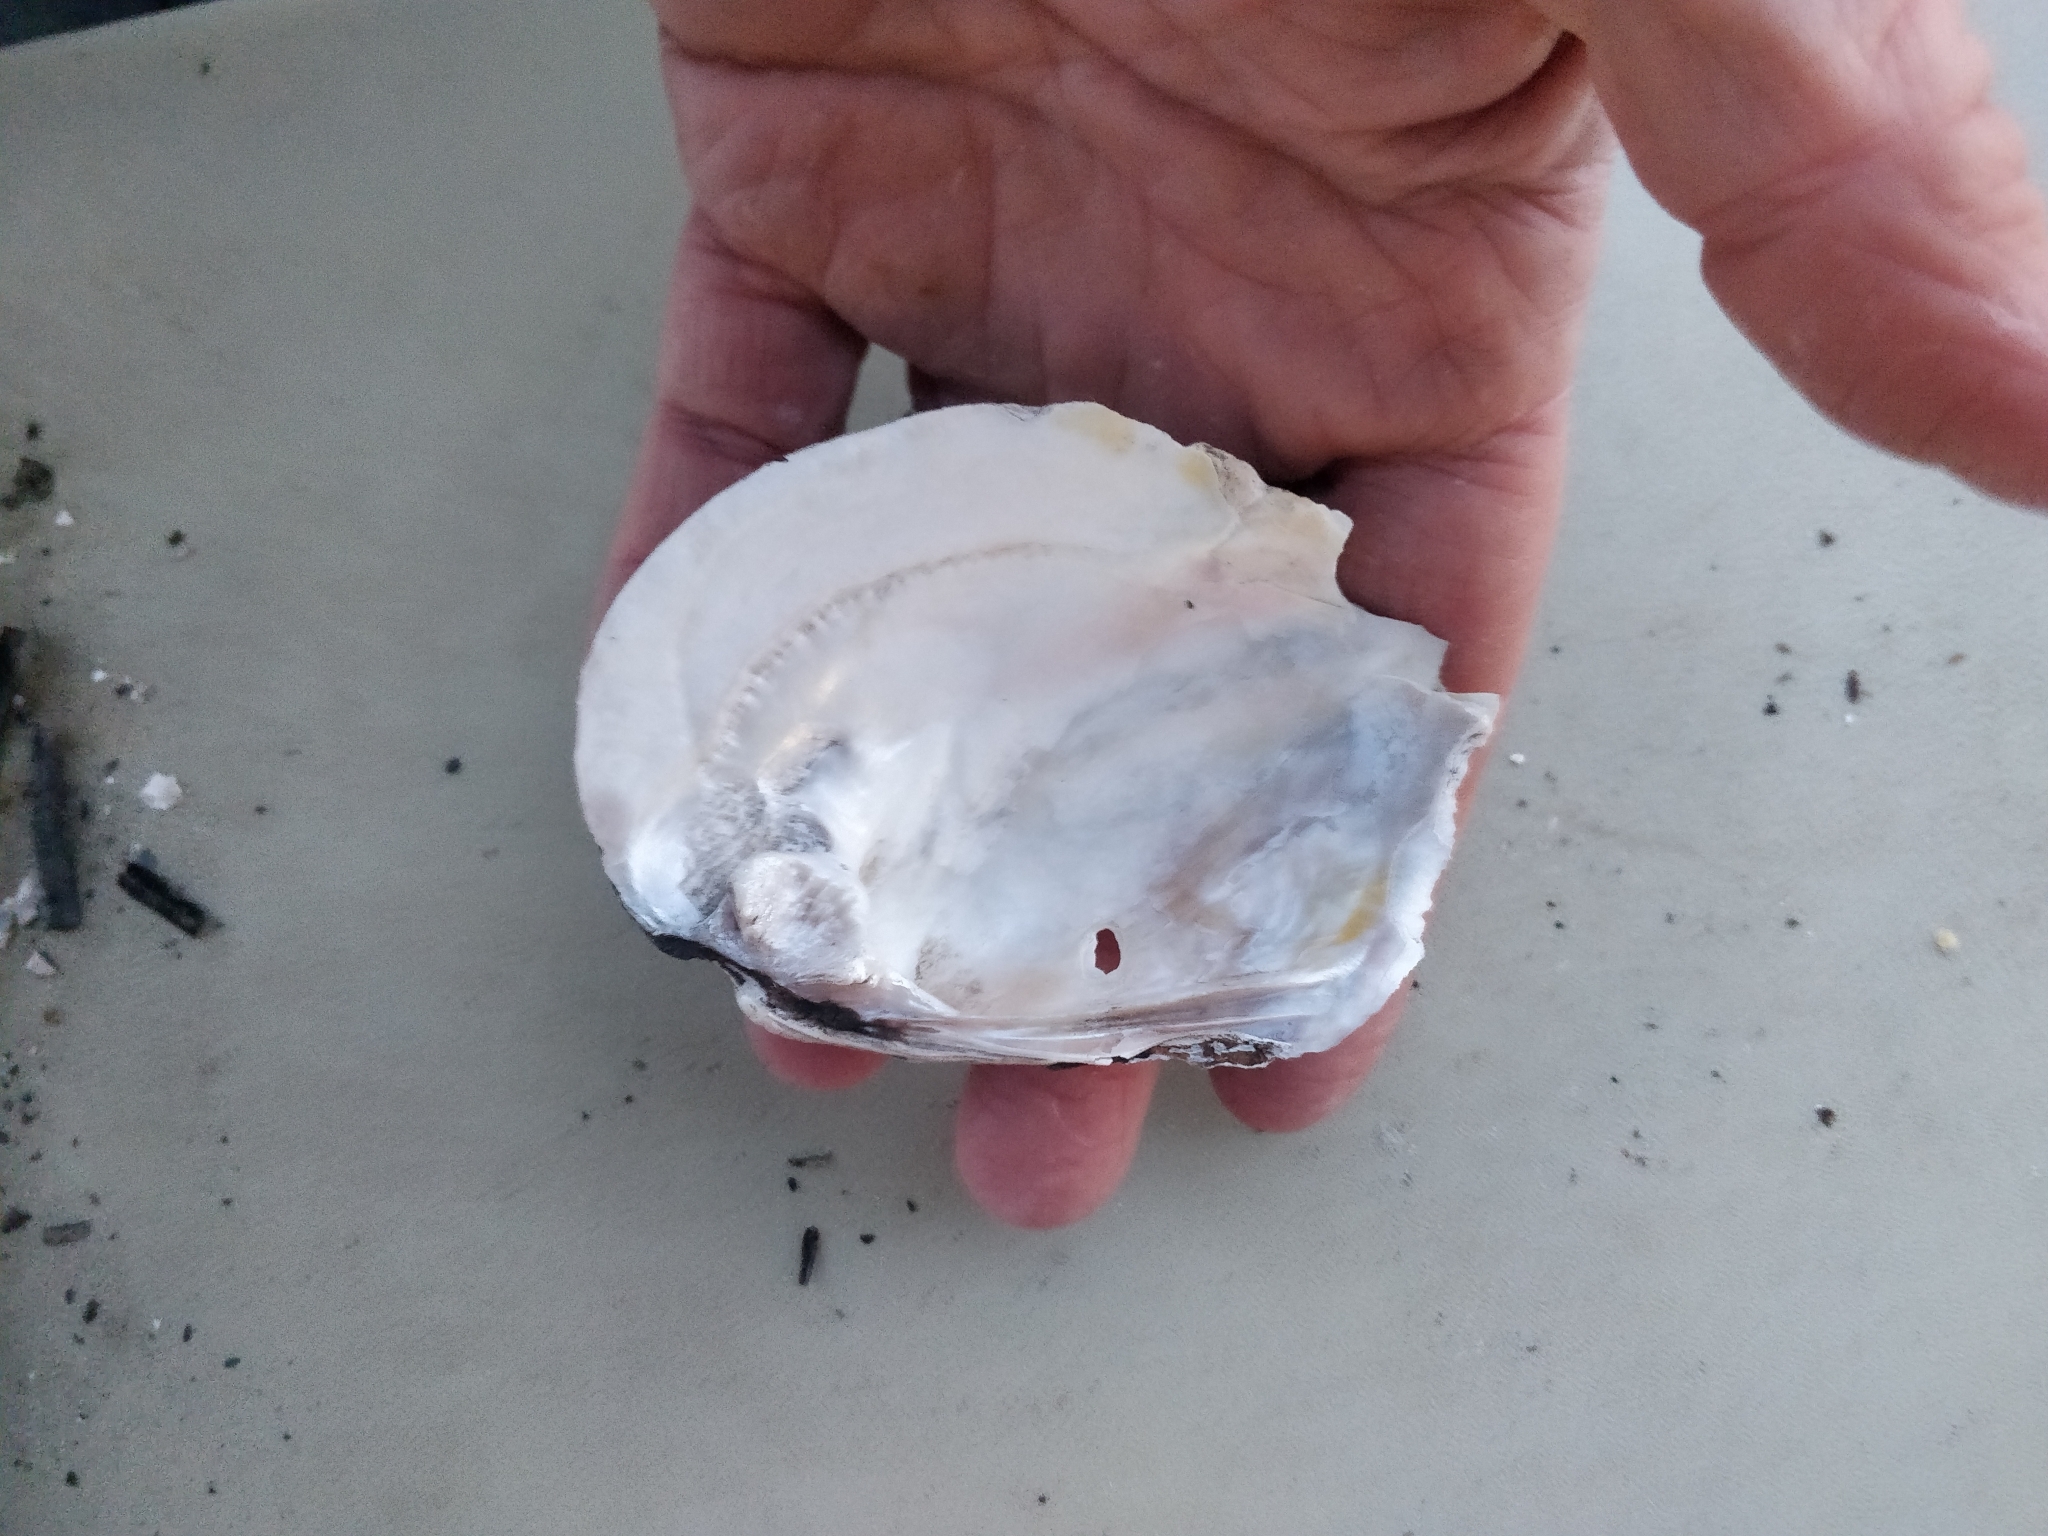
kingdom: Animalia
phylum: Mollusca
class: Bivalvia
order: Unionida
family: Unionidae
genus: Amblema
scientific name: Amblema plicata
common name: Threeridge
